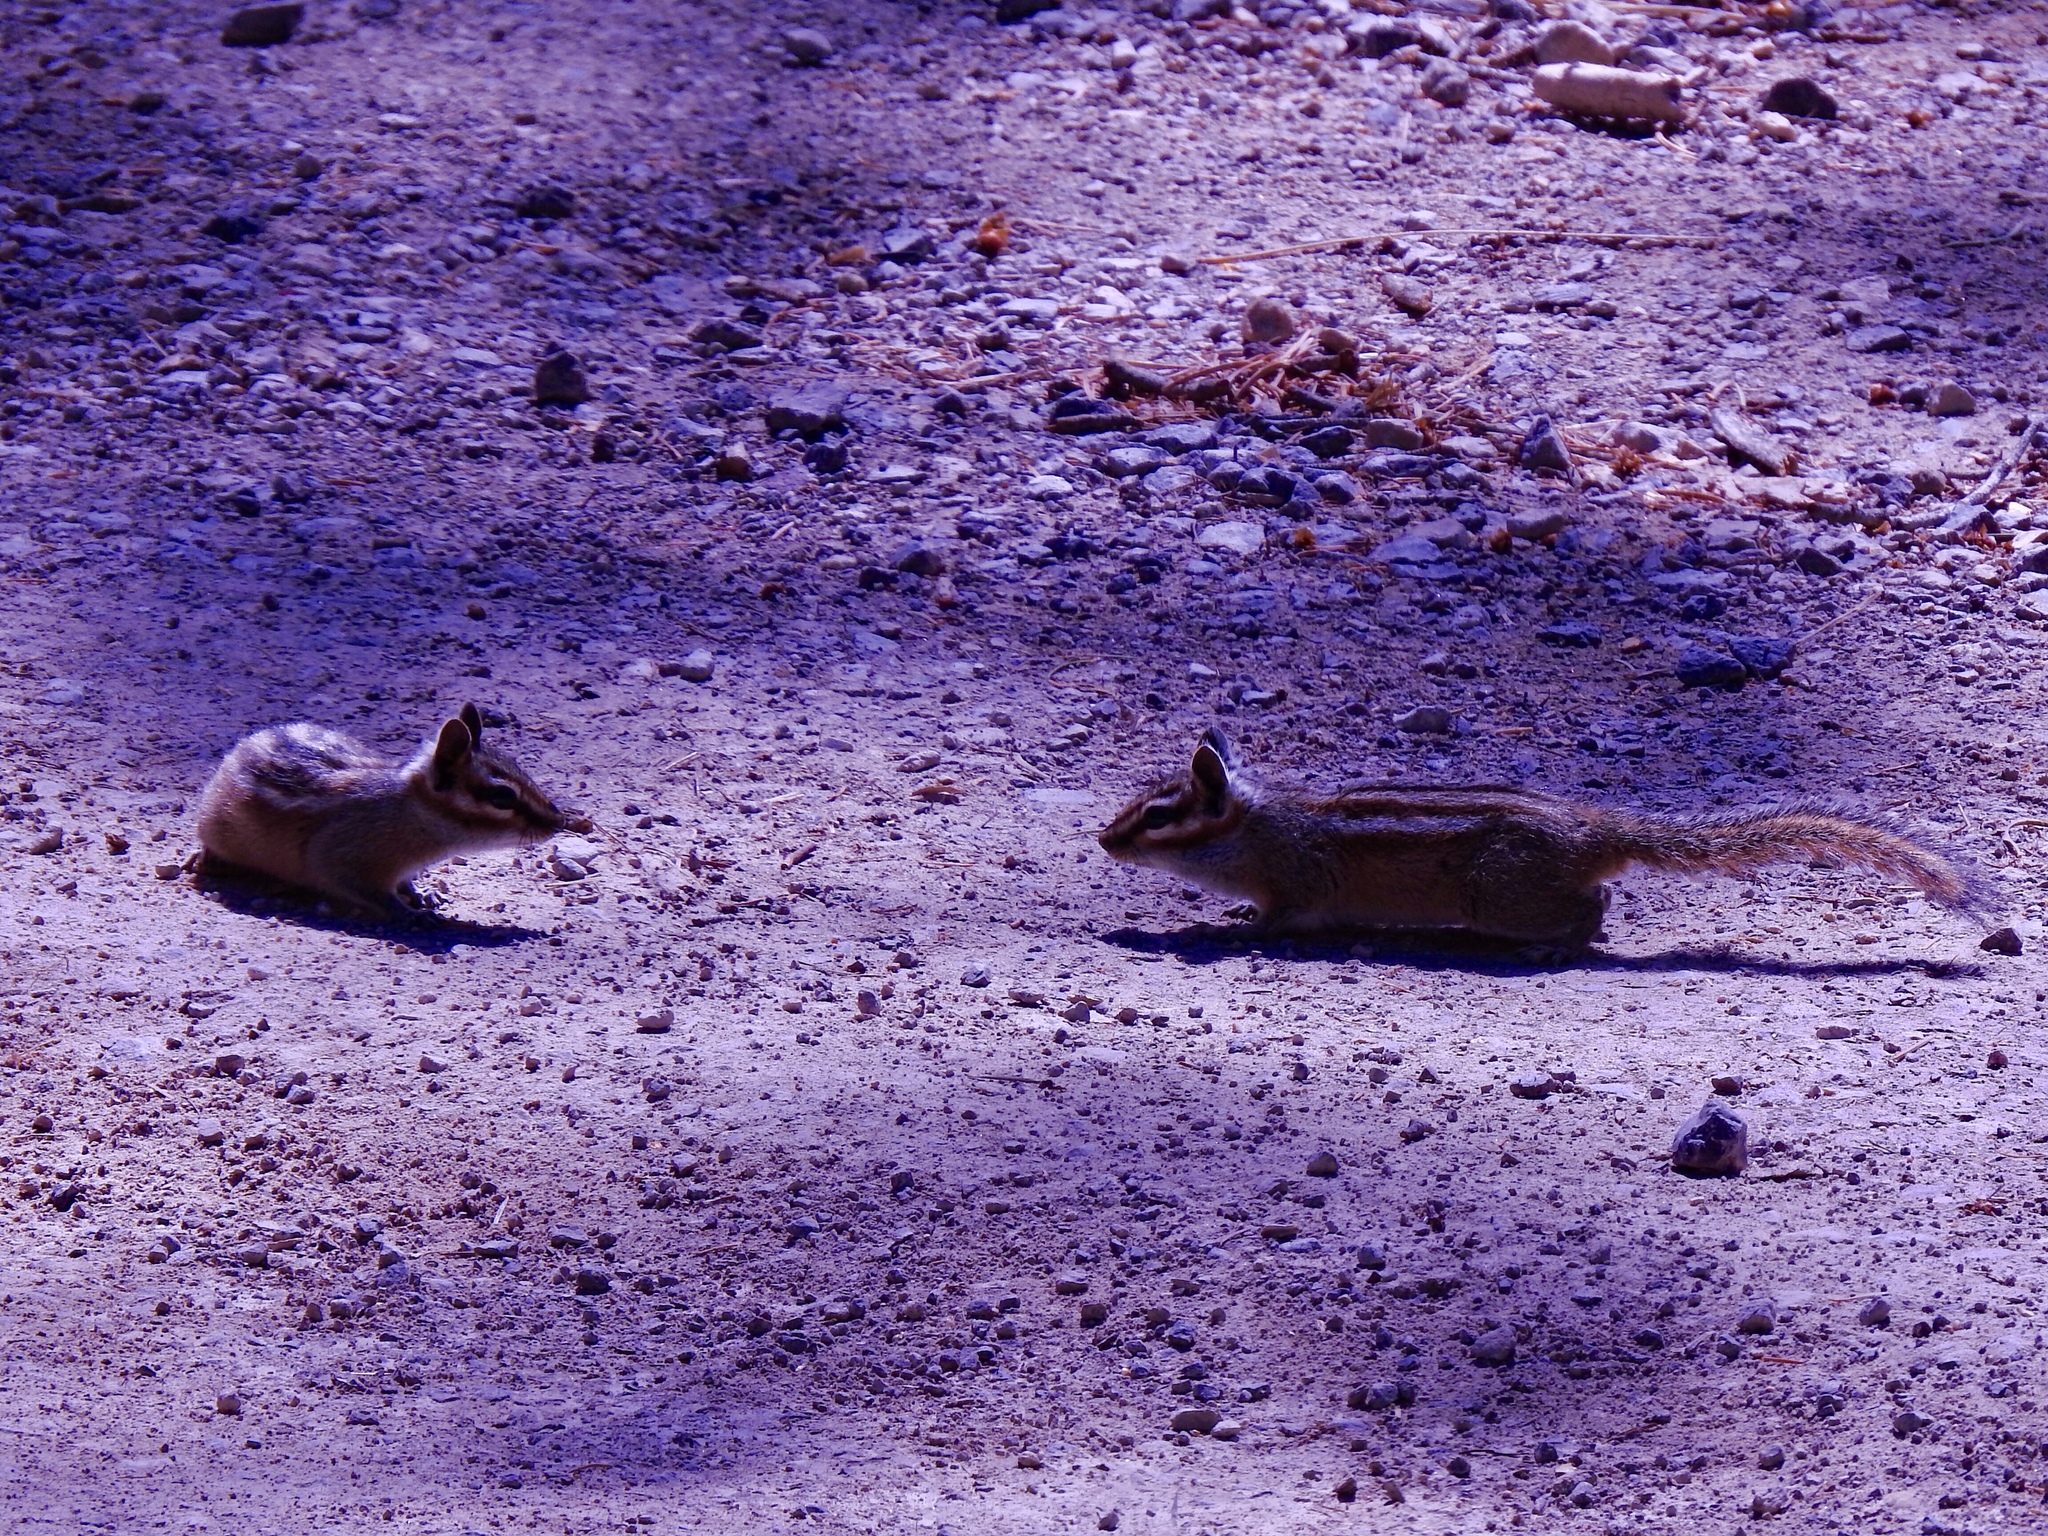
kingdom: Animalia
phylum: Chordata
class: Mammalia
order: Rodentia
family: Sciuridae
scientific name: Sciuridae
